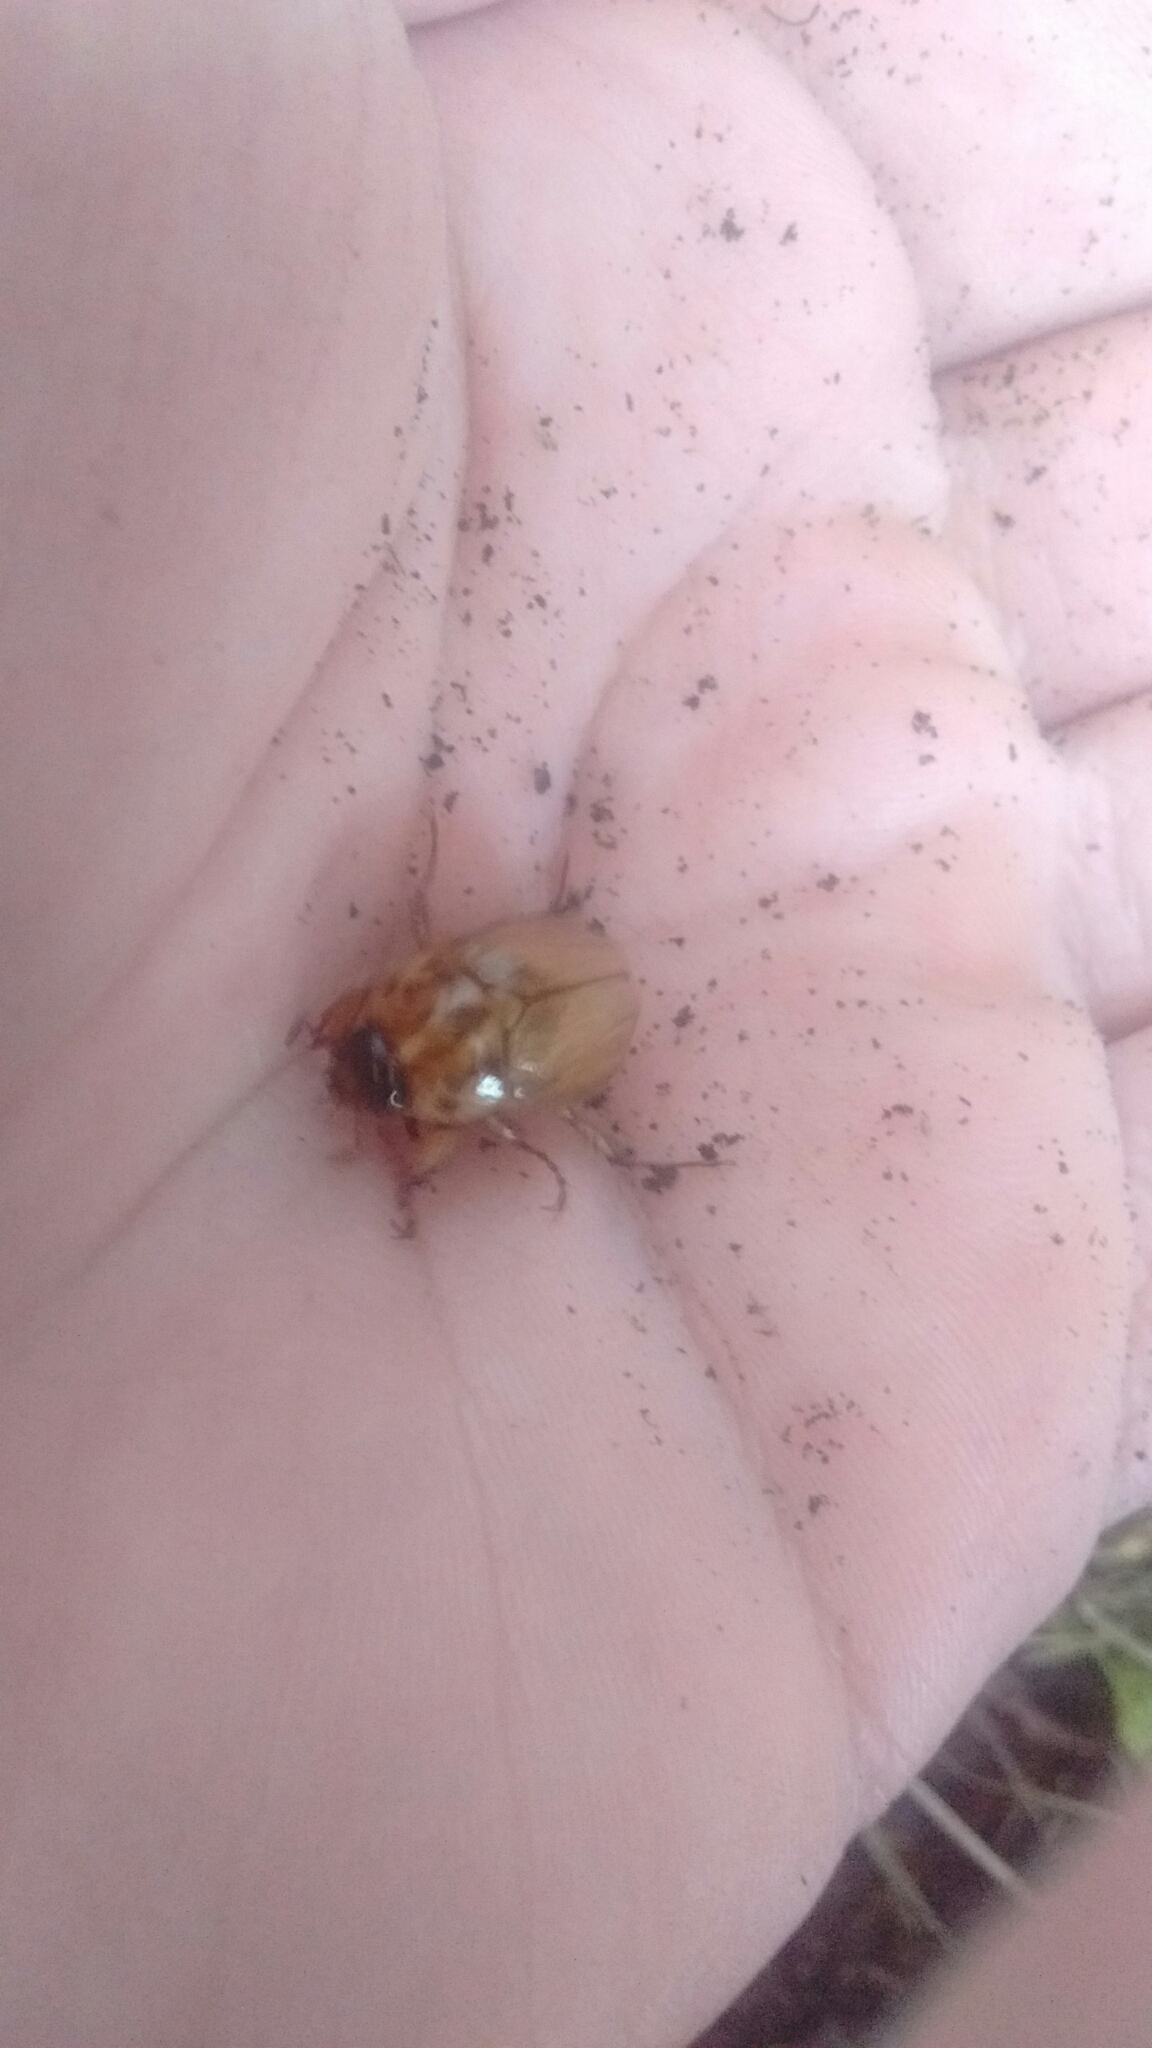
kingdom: Animalia
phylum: Arthropoda
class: Insecta
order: Coleoptera
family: Scarabaeidae
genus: Cyclocephala
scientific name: Cyclocephala signaticollis
